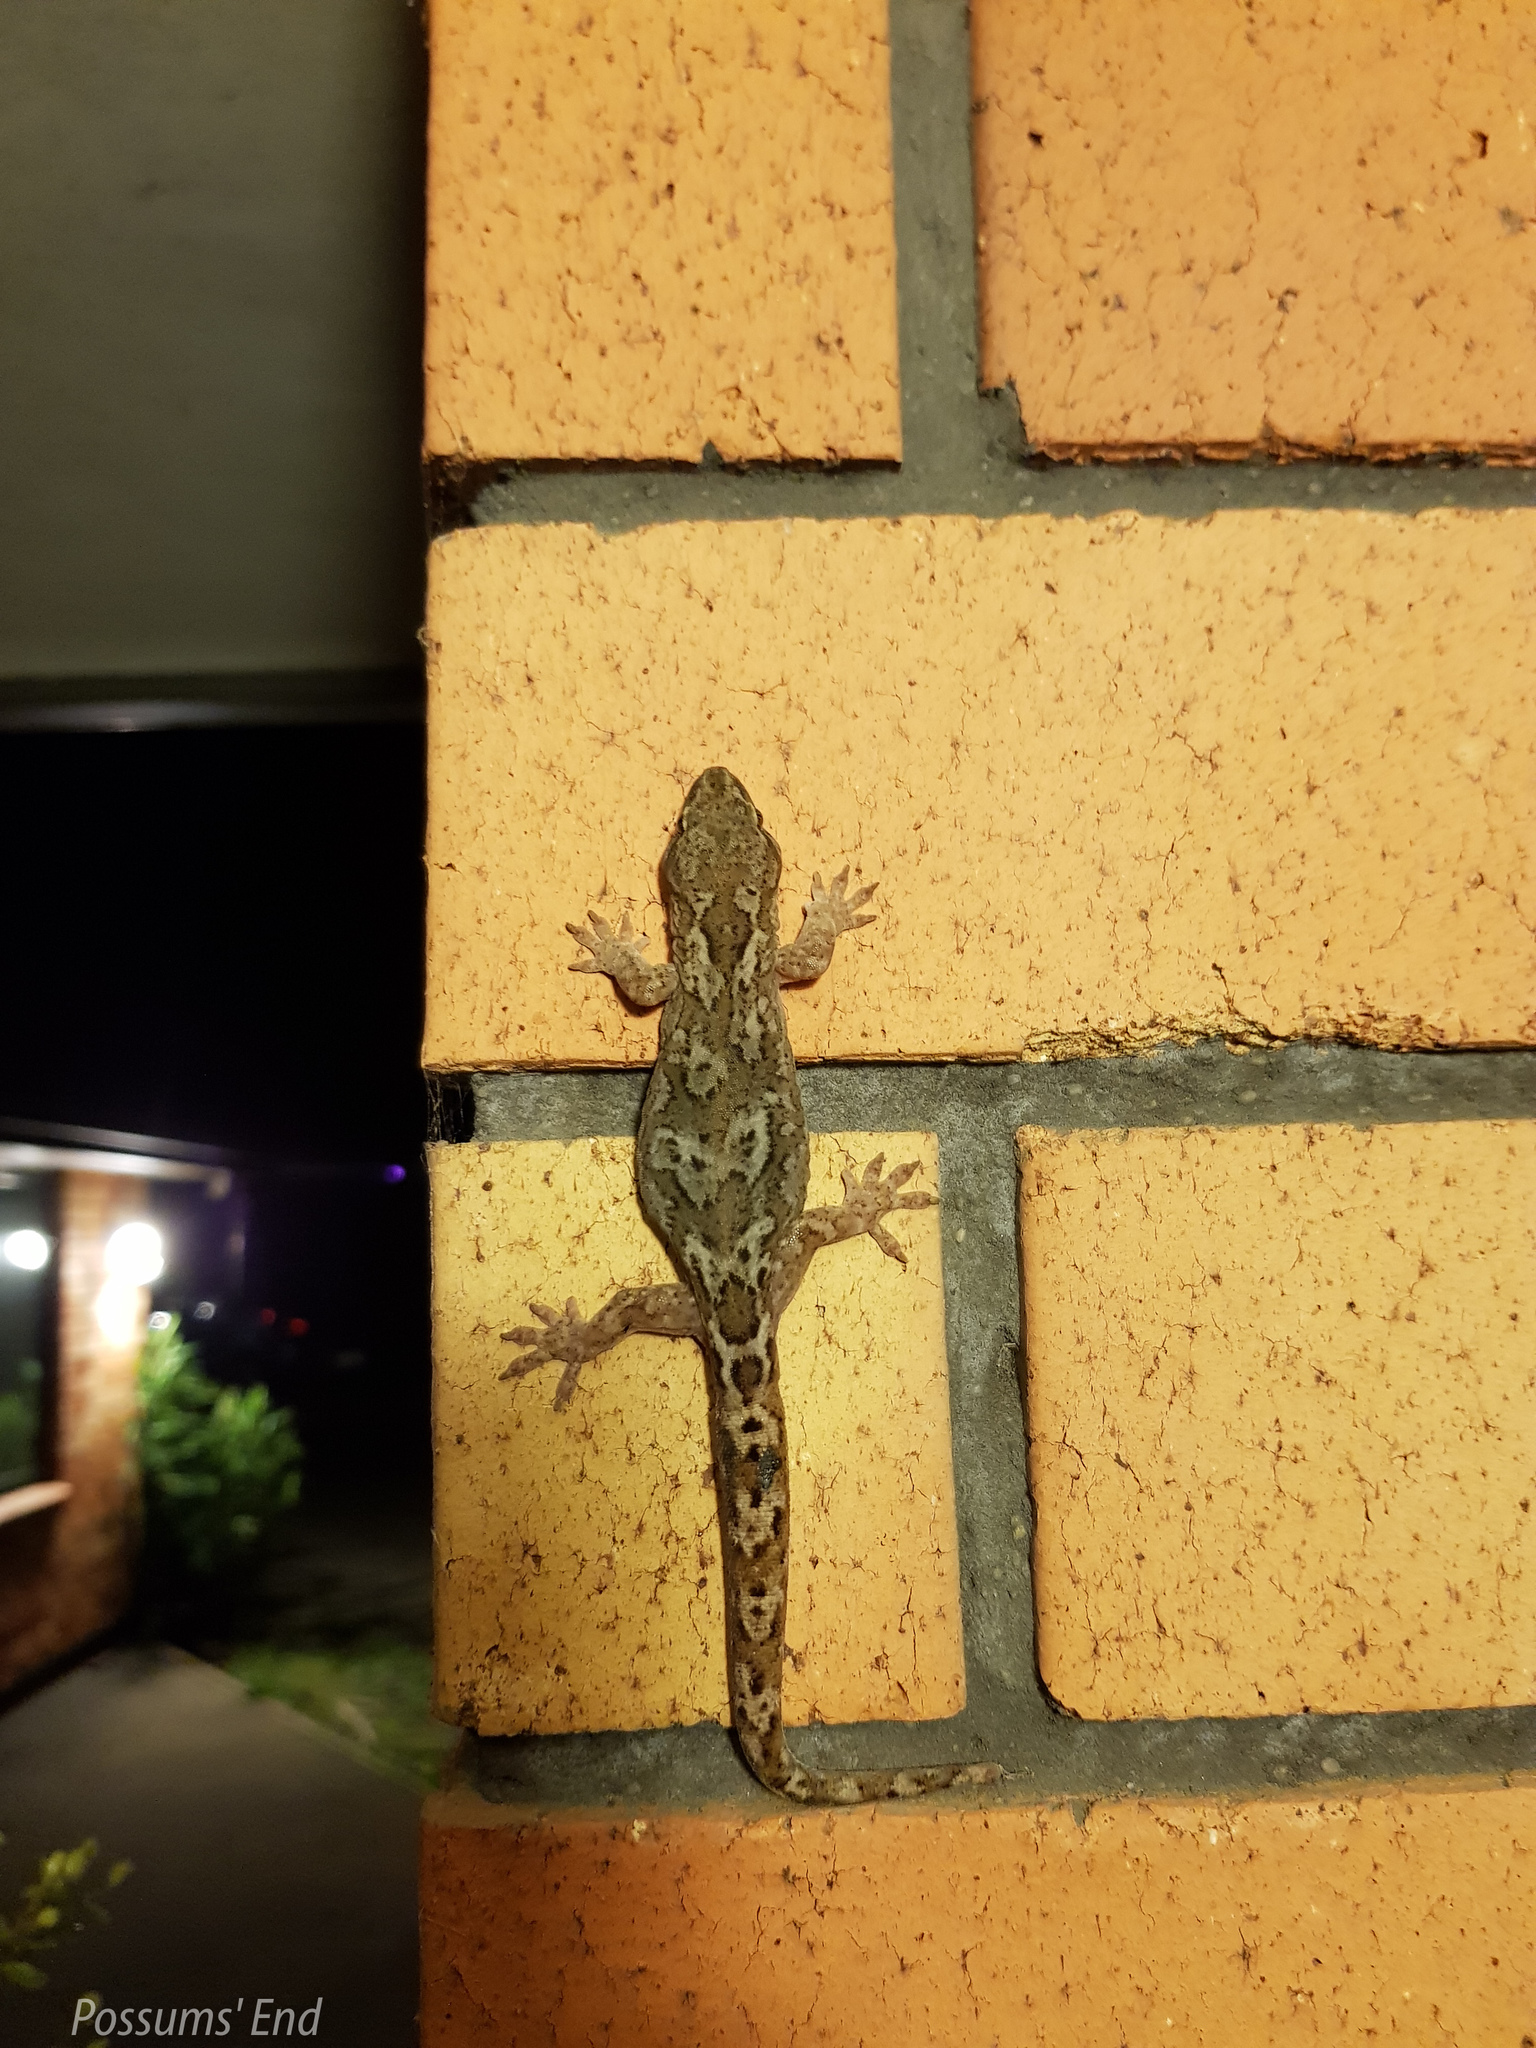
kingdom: Animalia
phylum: Chordata
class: Squamata
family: Diplodactylidae
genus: Woodworthia
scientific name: Woodworthia
